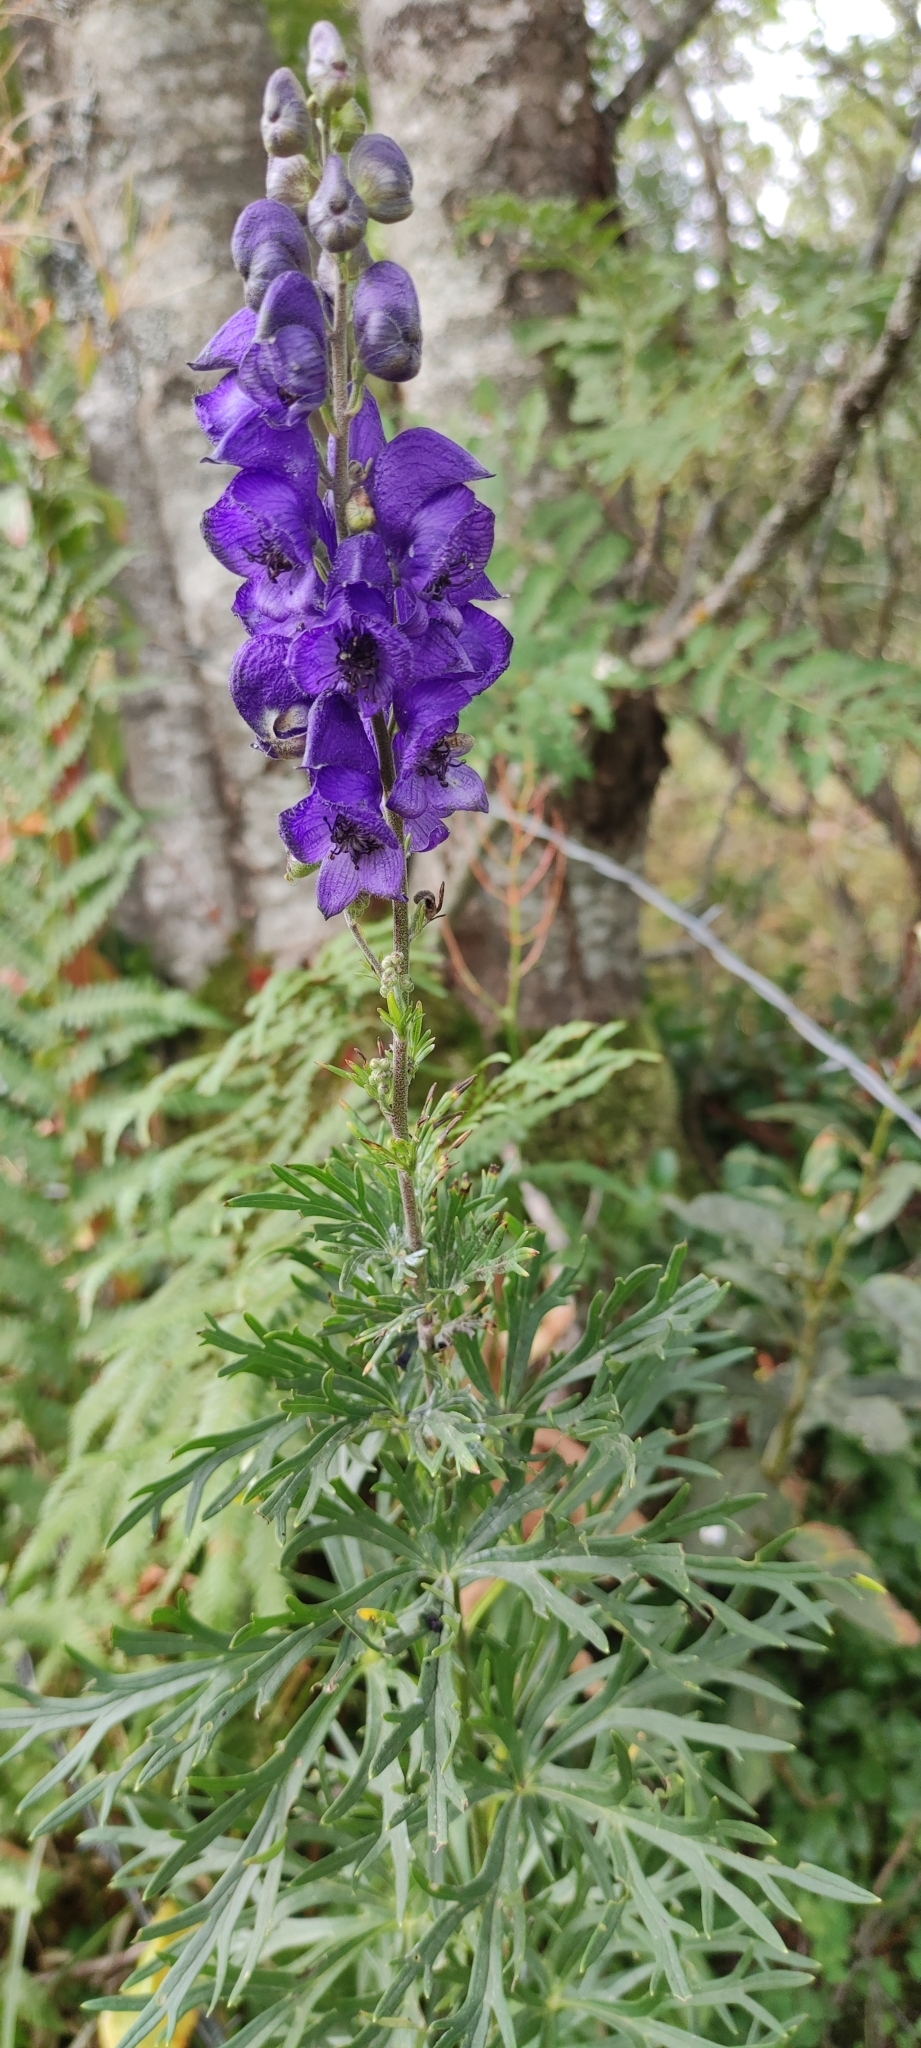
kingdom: Plantae
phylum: Tracheophyta
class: Magnoliopsida
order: Ranunculales
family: Ranunculaceae
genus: Aconitum
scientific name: Aconitum napellus
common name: Garden monkshood
